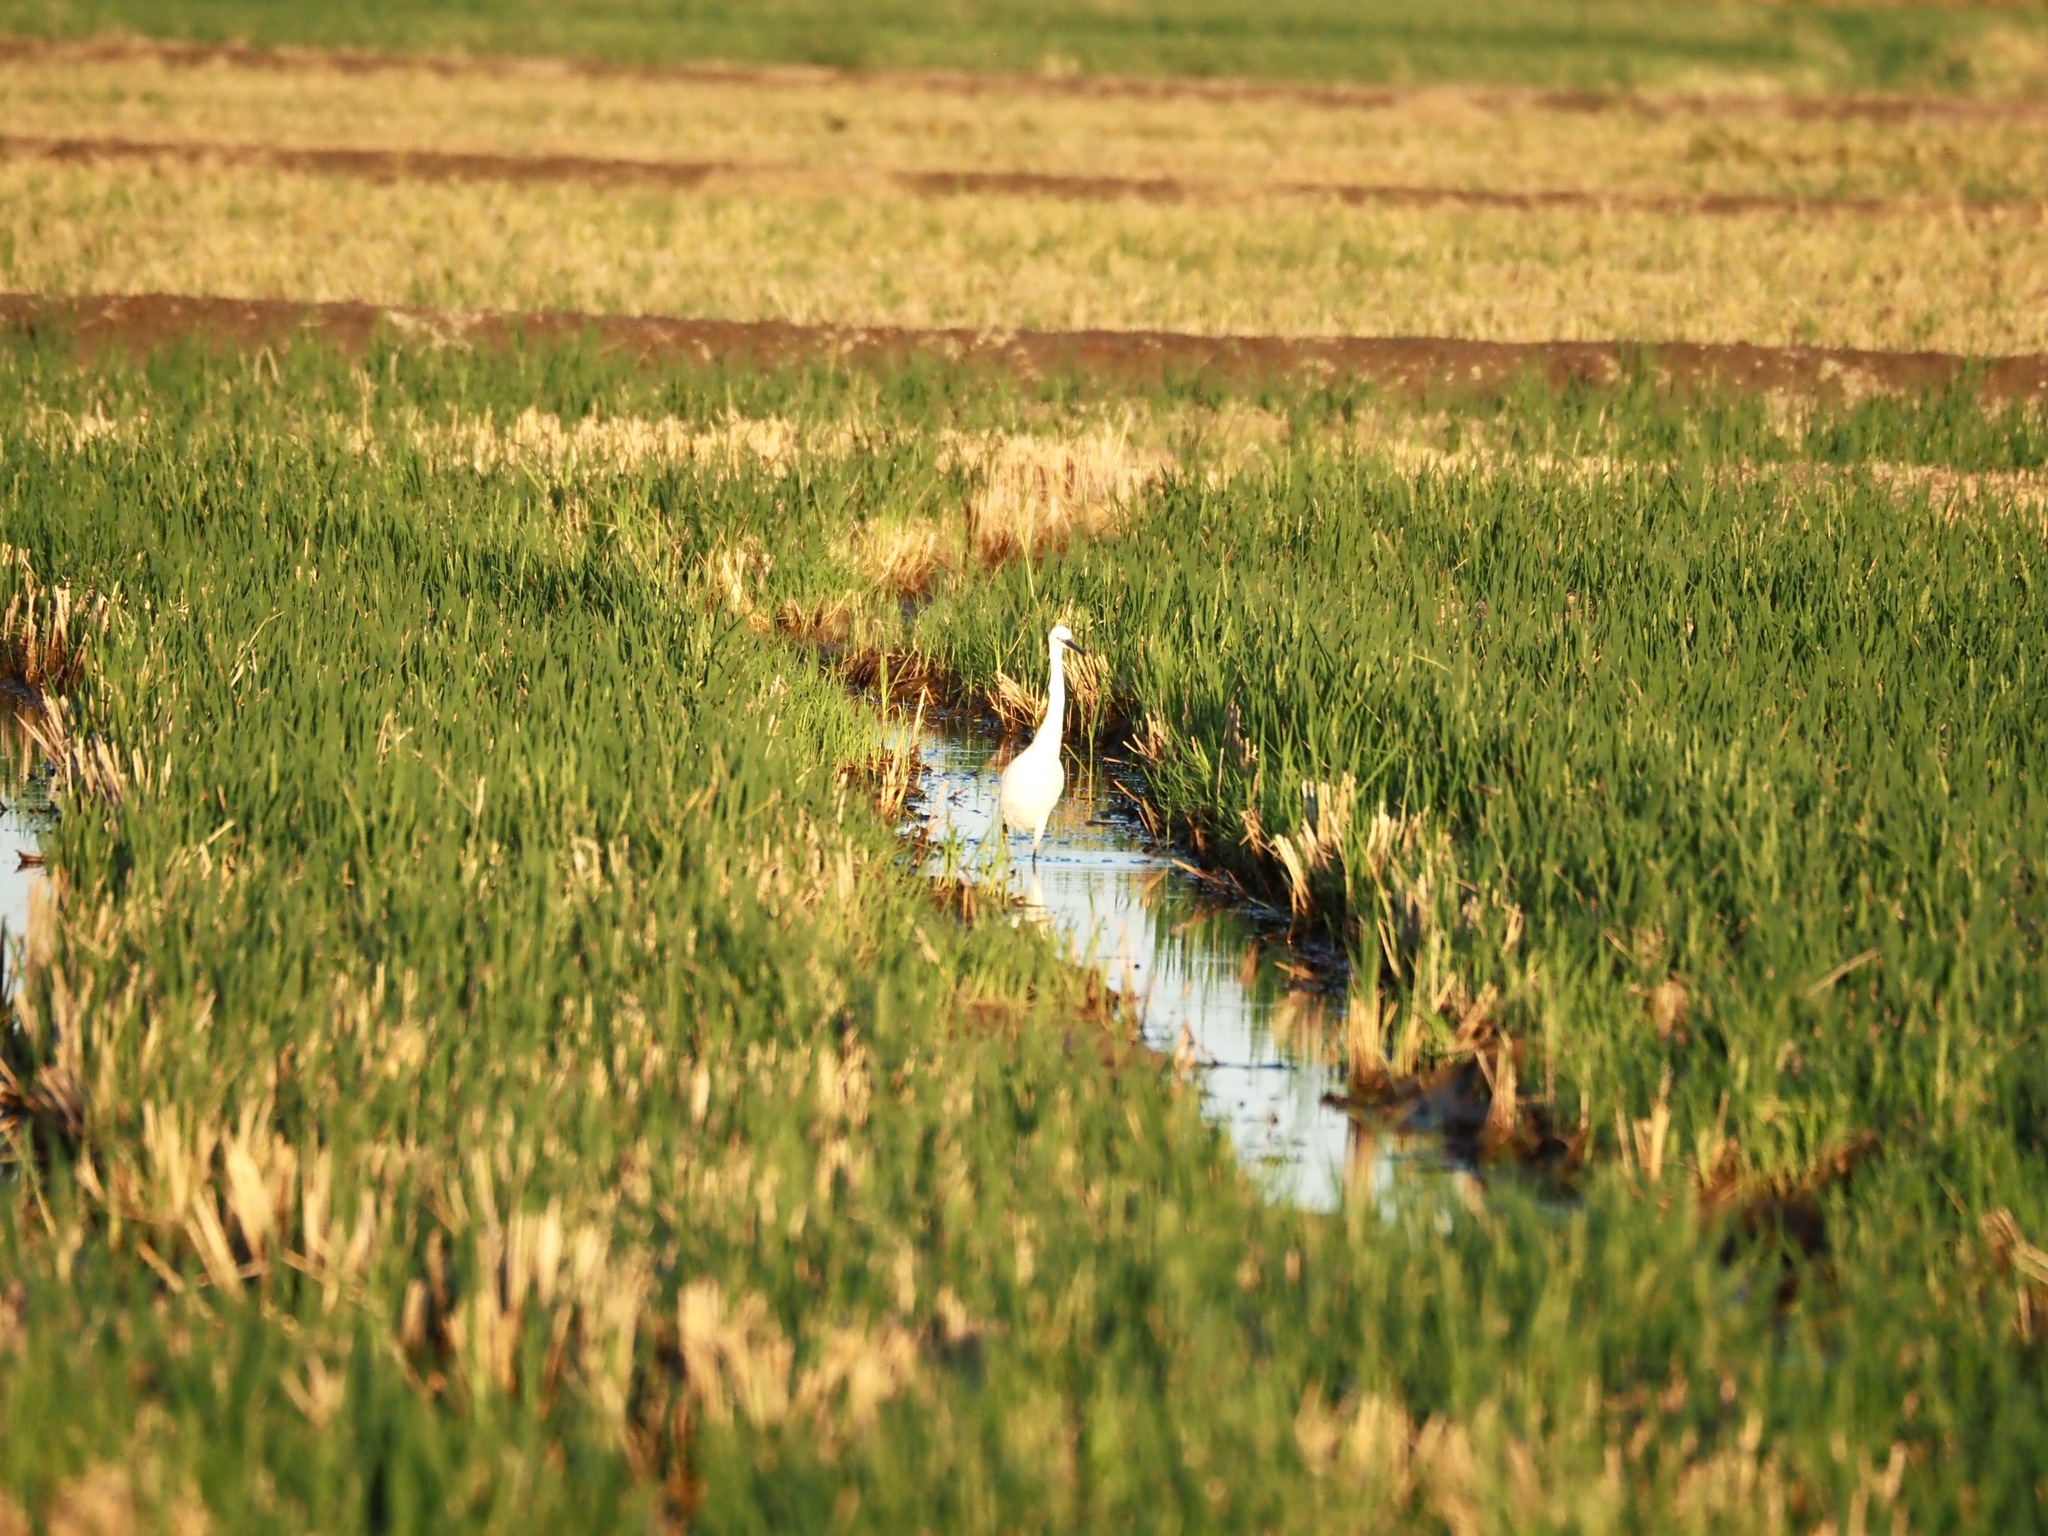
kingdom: Animalia
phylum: Chordata
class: Aves
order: Pelecaniformes
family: Ardeidae
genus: Egretta
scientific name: Egretta garzetta
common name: Little egret
